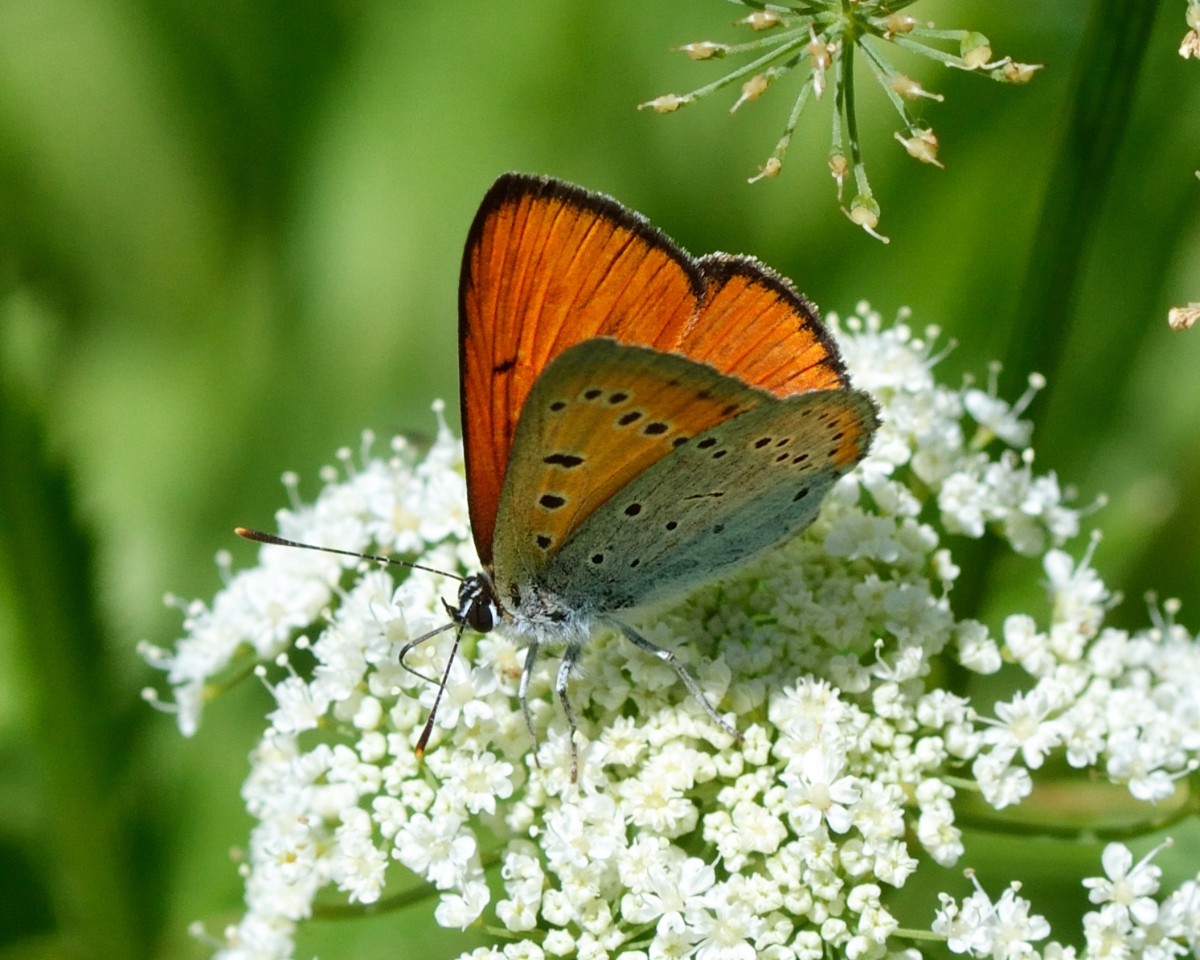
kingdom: Animalia
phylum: Arthropoda
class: Insecta
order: Lepidoptera
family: Lycaenidae
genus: Lycaena
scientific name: Lycaena dispar
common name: Large copper
